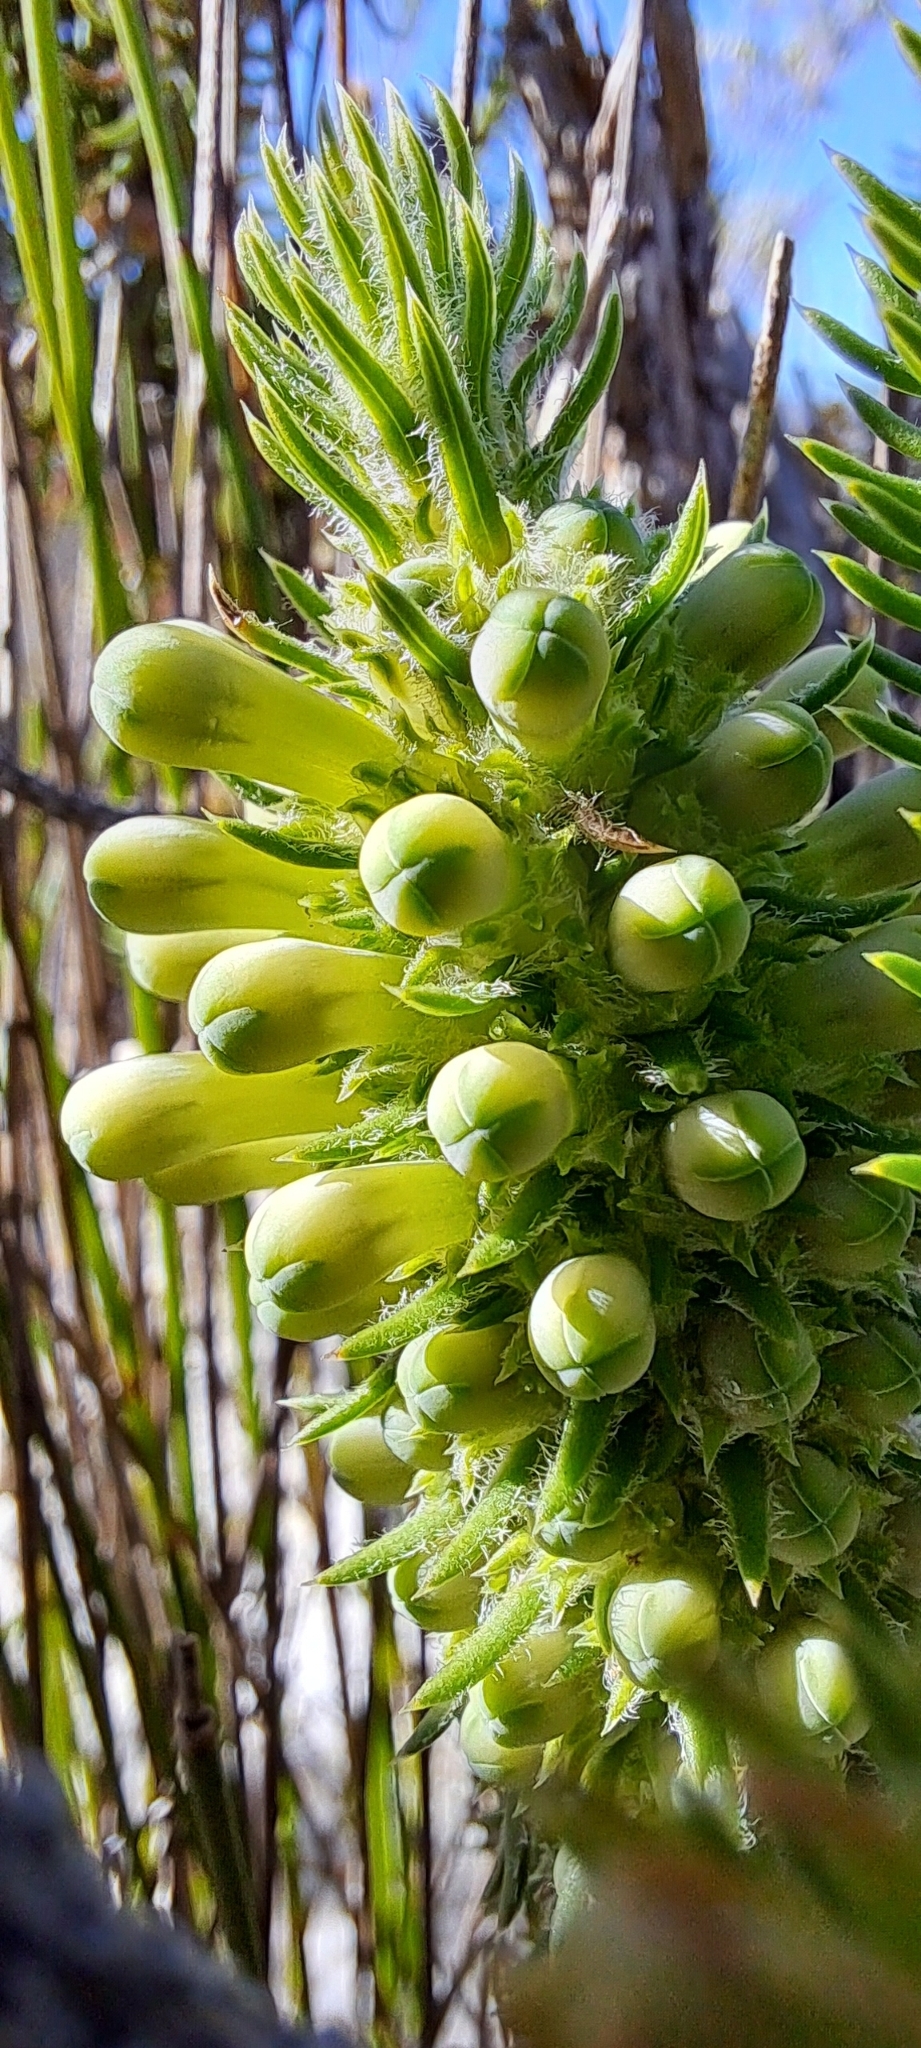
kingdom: Plantae
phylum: Tracheophyta
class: Magnoliopsida
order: Ericales
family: Ericaceae
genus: Erica
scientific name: Erica sessiliflora
